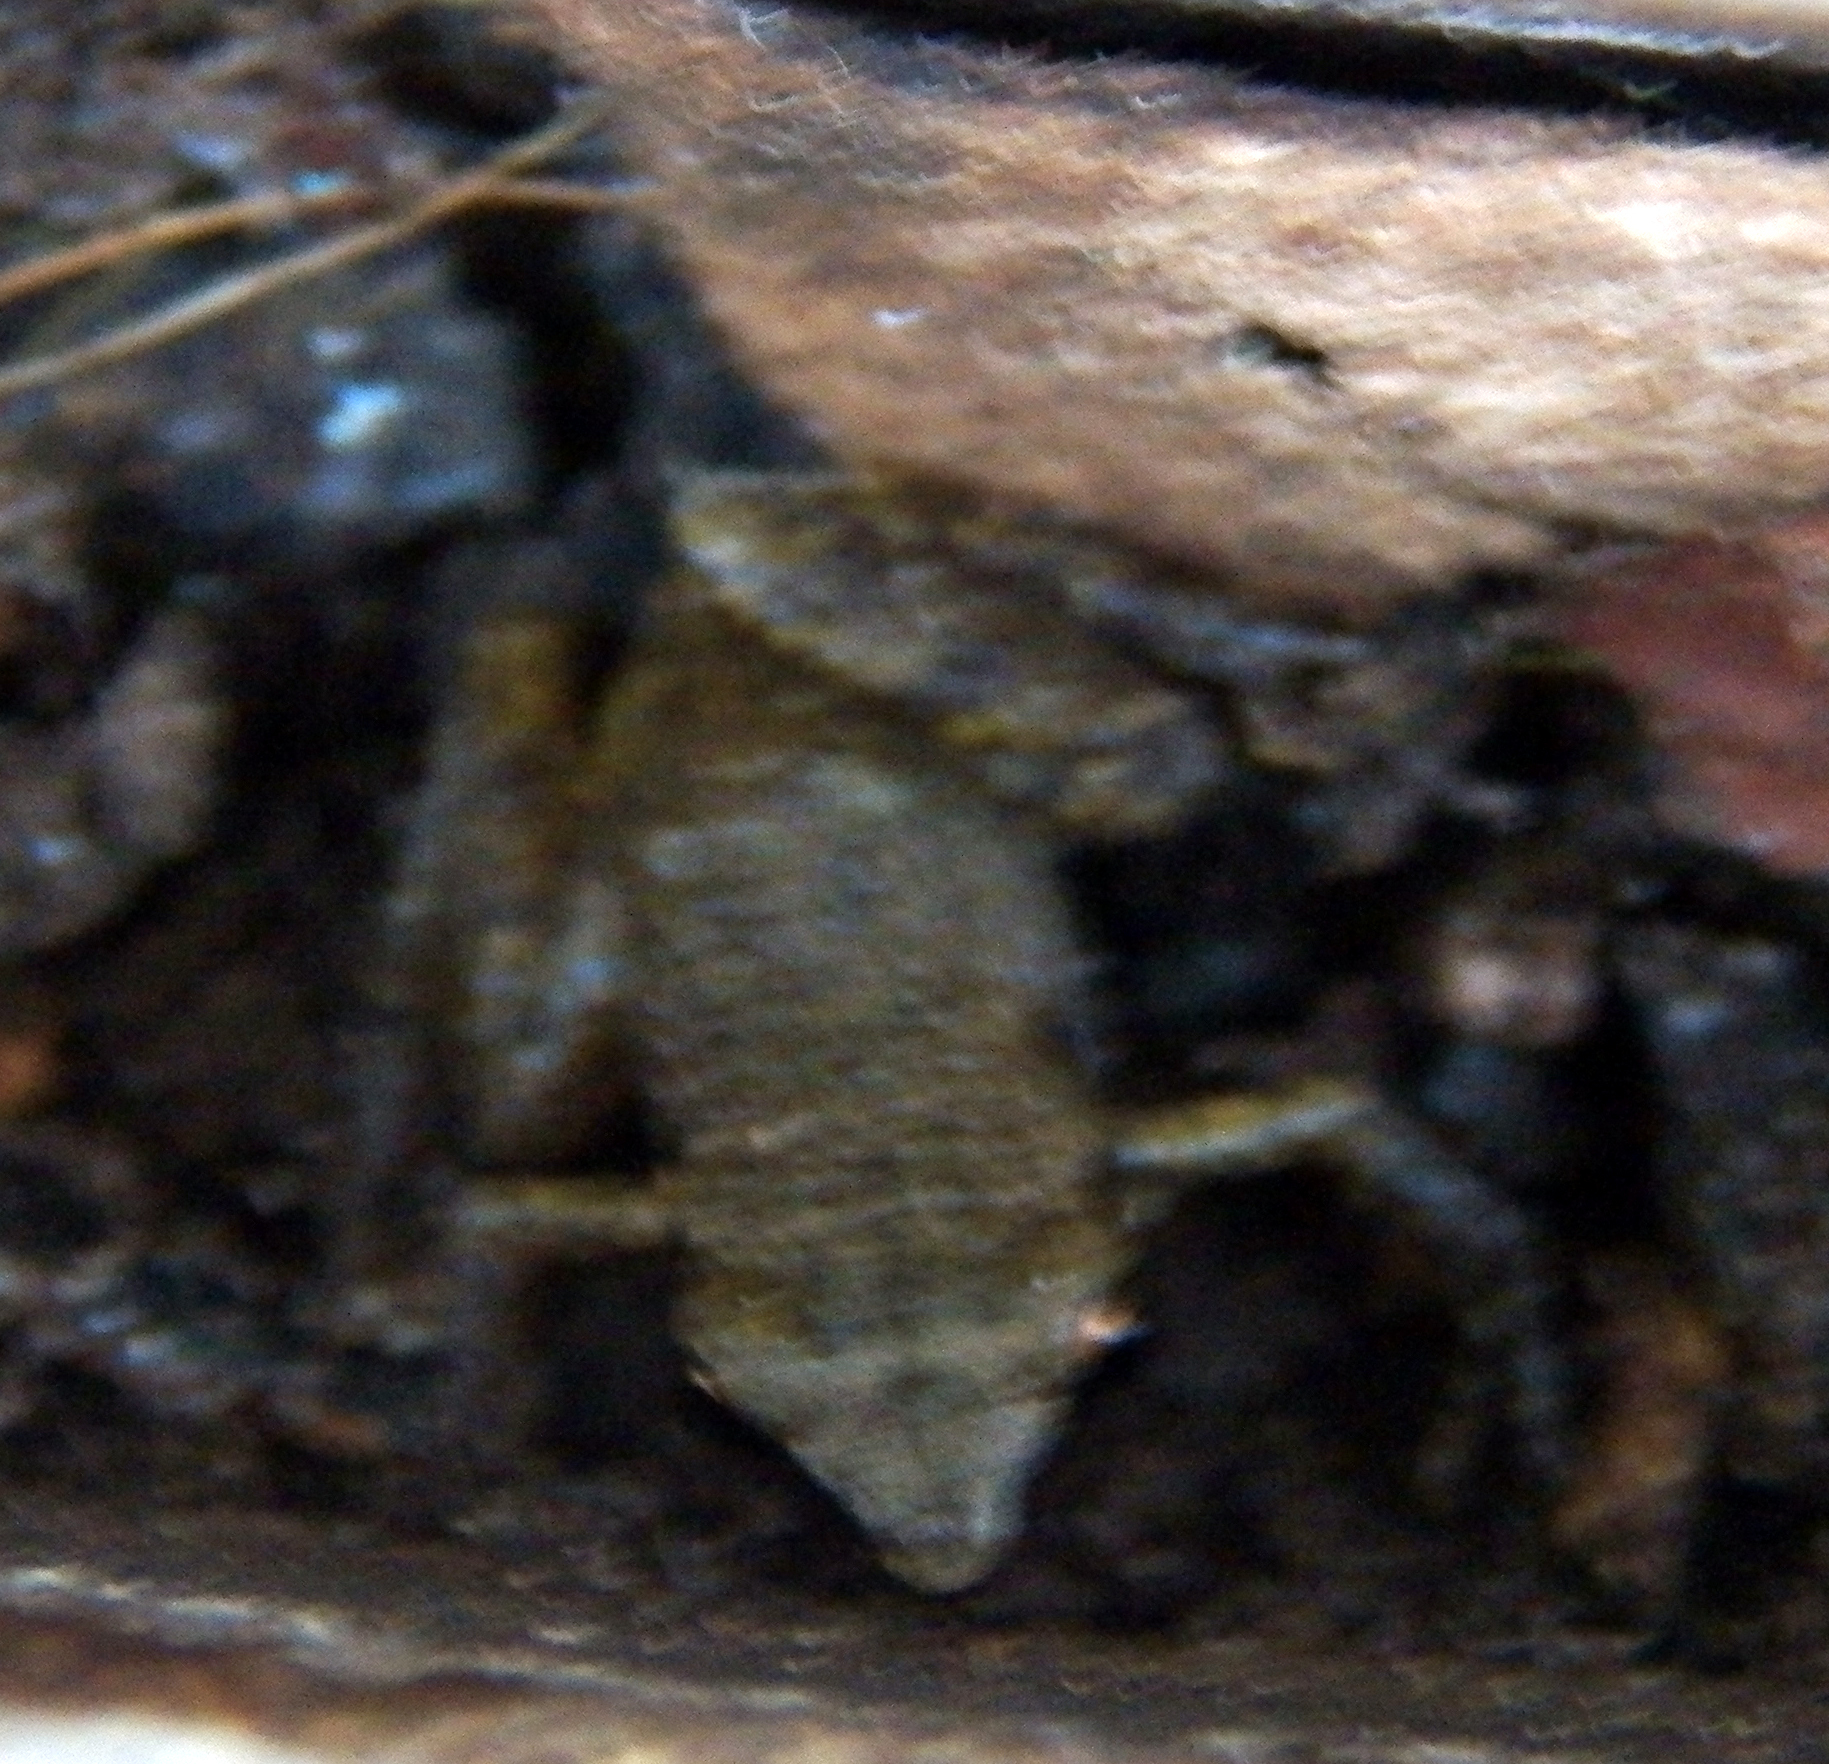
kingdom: Animalia
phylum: Chordata
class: Amphibia
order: Anura
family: Eleutherodactylidae
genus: Eleutherodactylus
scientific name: Eleutherodactylus campi
